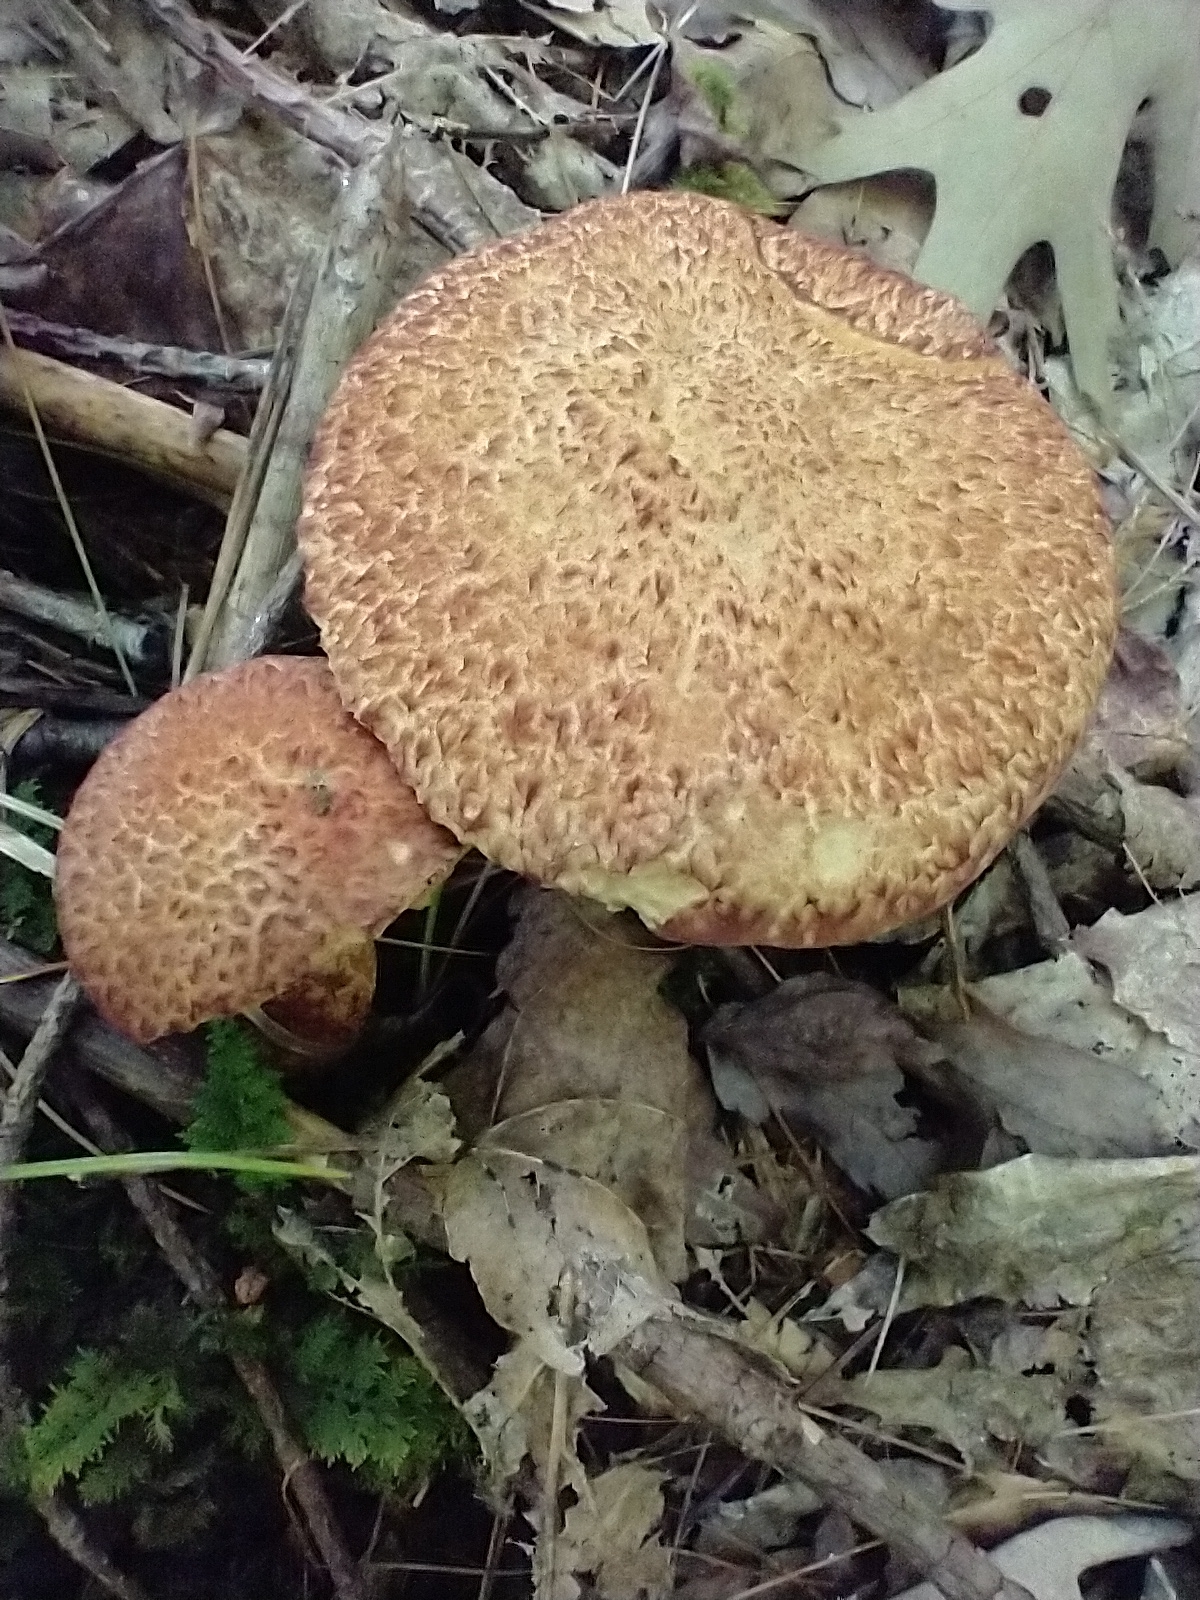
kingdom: Fungi
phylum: Basidiomycota
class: Agaricomycetes
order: Boletales
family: Suillaceae
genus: Suillus
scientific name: Suillus spraguei
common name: Painted suillus
